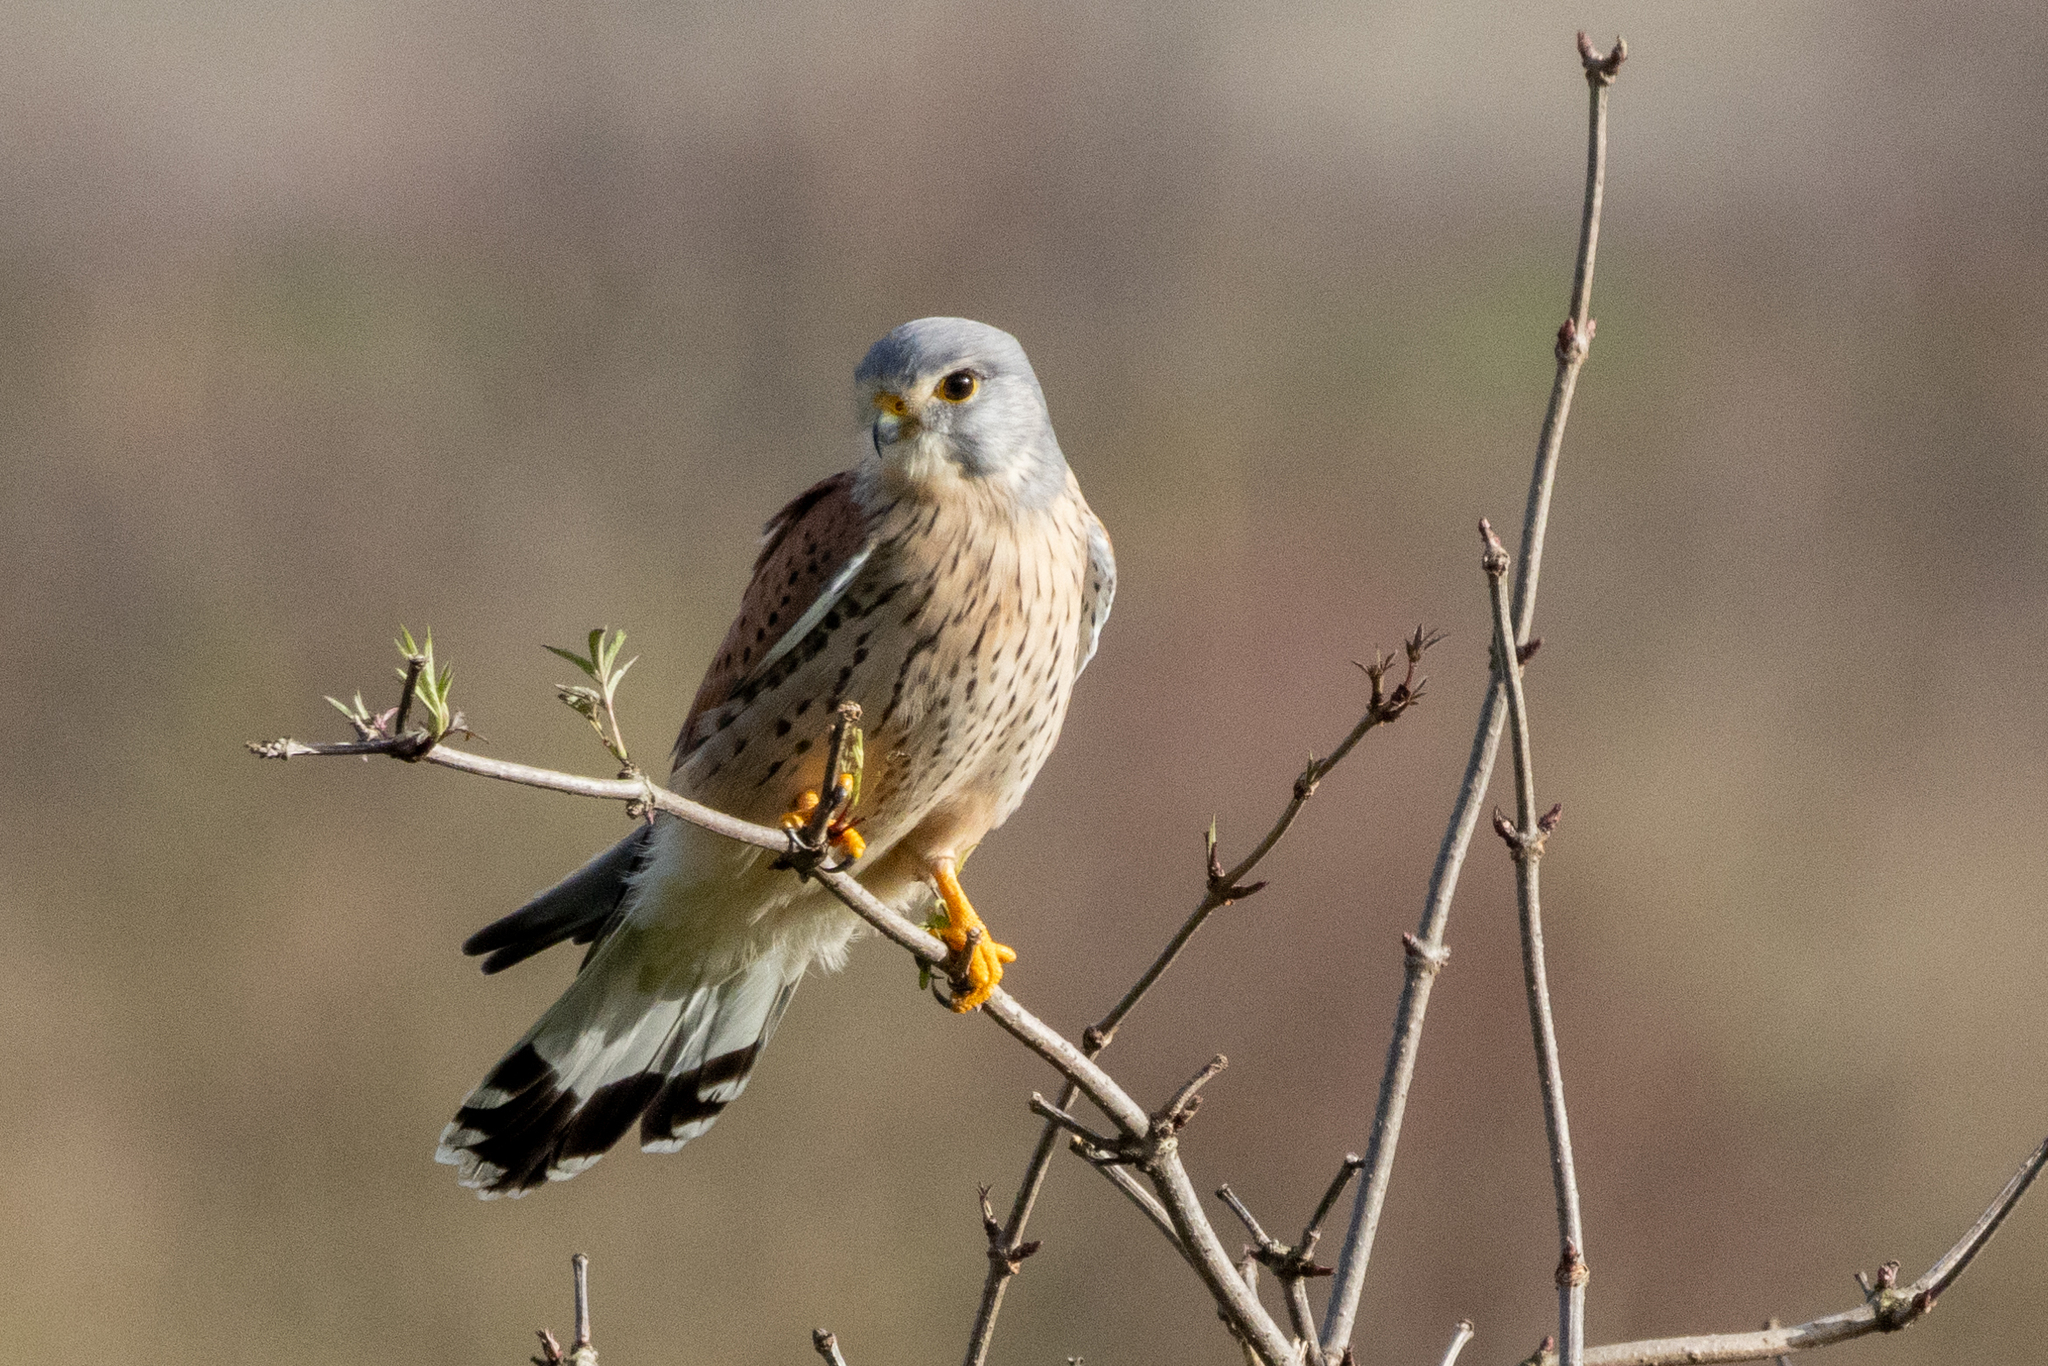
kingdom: Animalia
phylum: Chordata
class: Aves
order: Falconiformes
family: Falconidae
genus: Falco
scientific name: Falco tinnunculus
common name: Common kestrel
